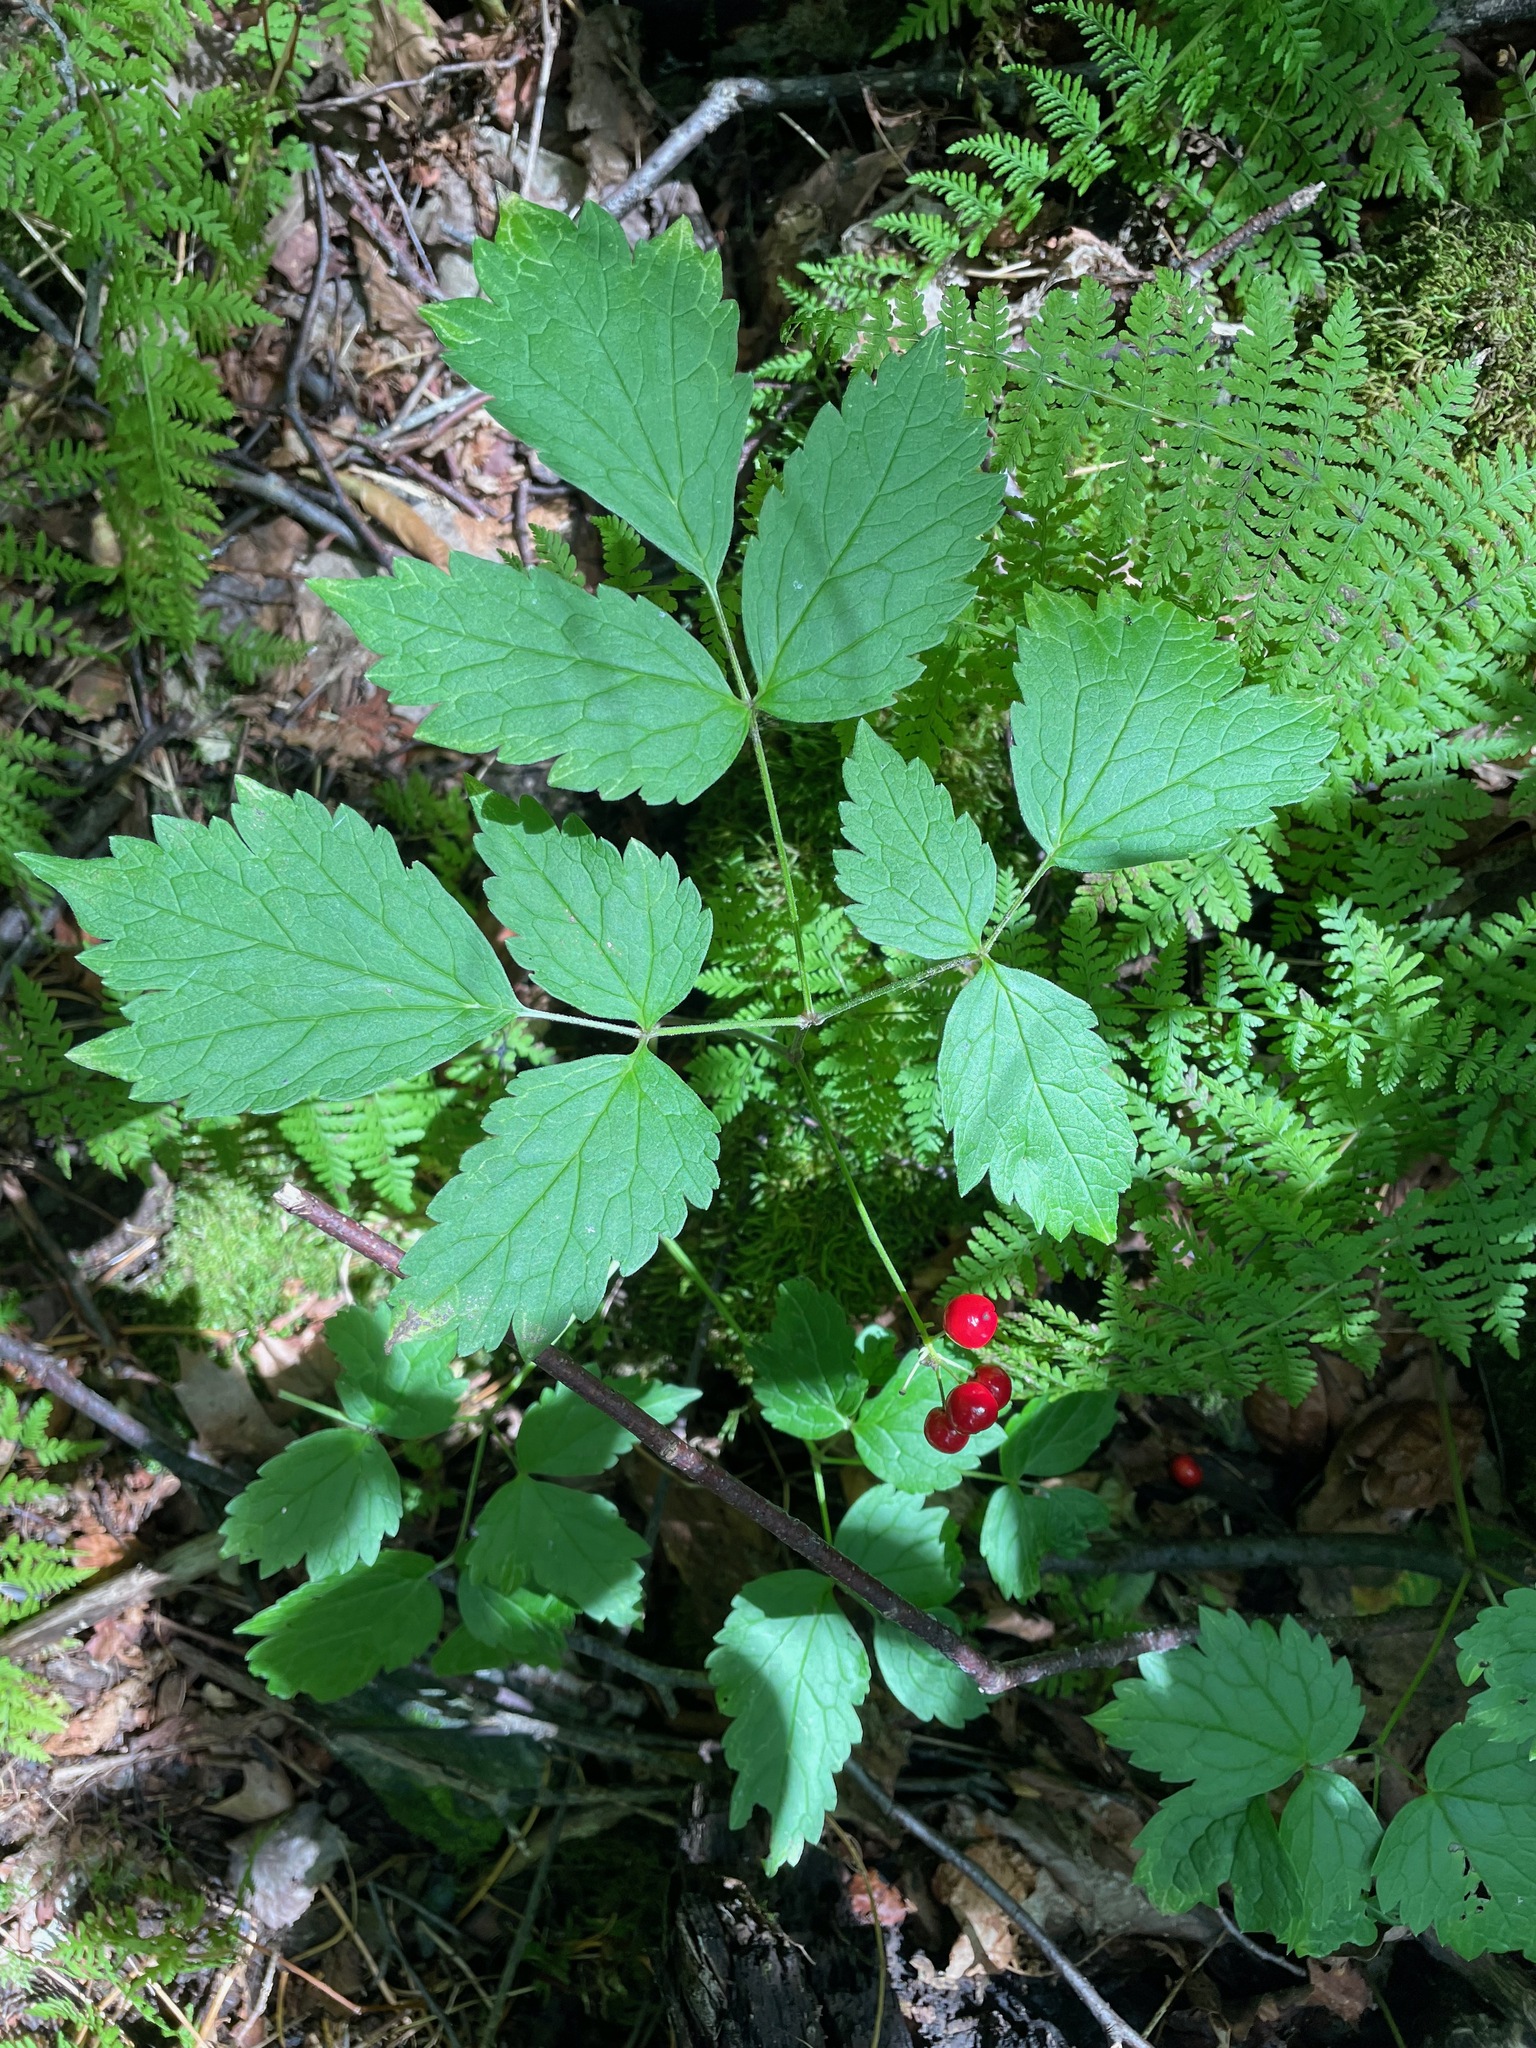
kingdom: Plantae
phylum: Tracheophyta
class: Magnoliopsida
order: Ranunculales
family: Ranunculaceae
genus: Actaea
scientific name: Actaea rubra
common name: Red baneberry
